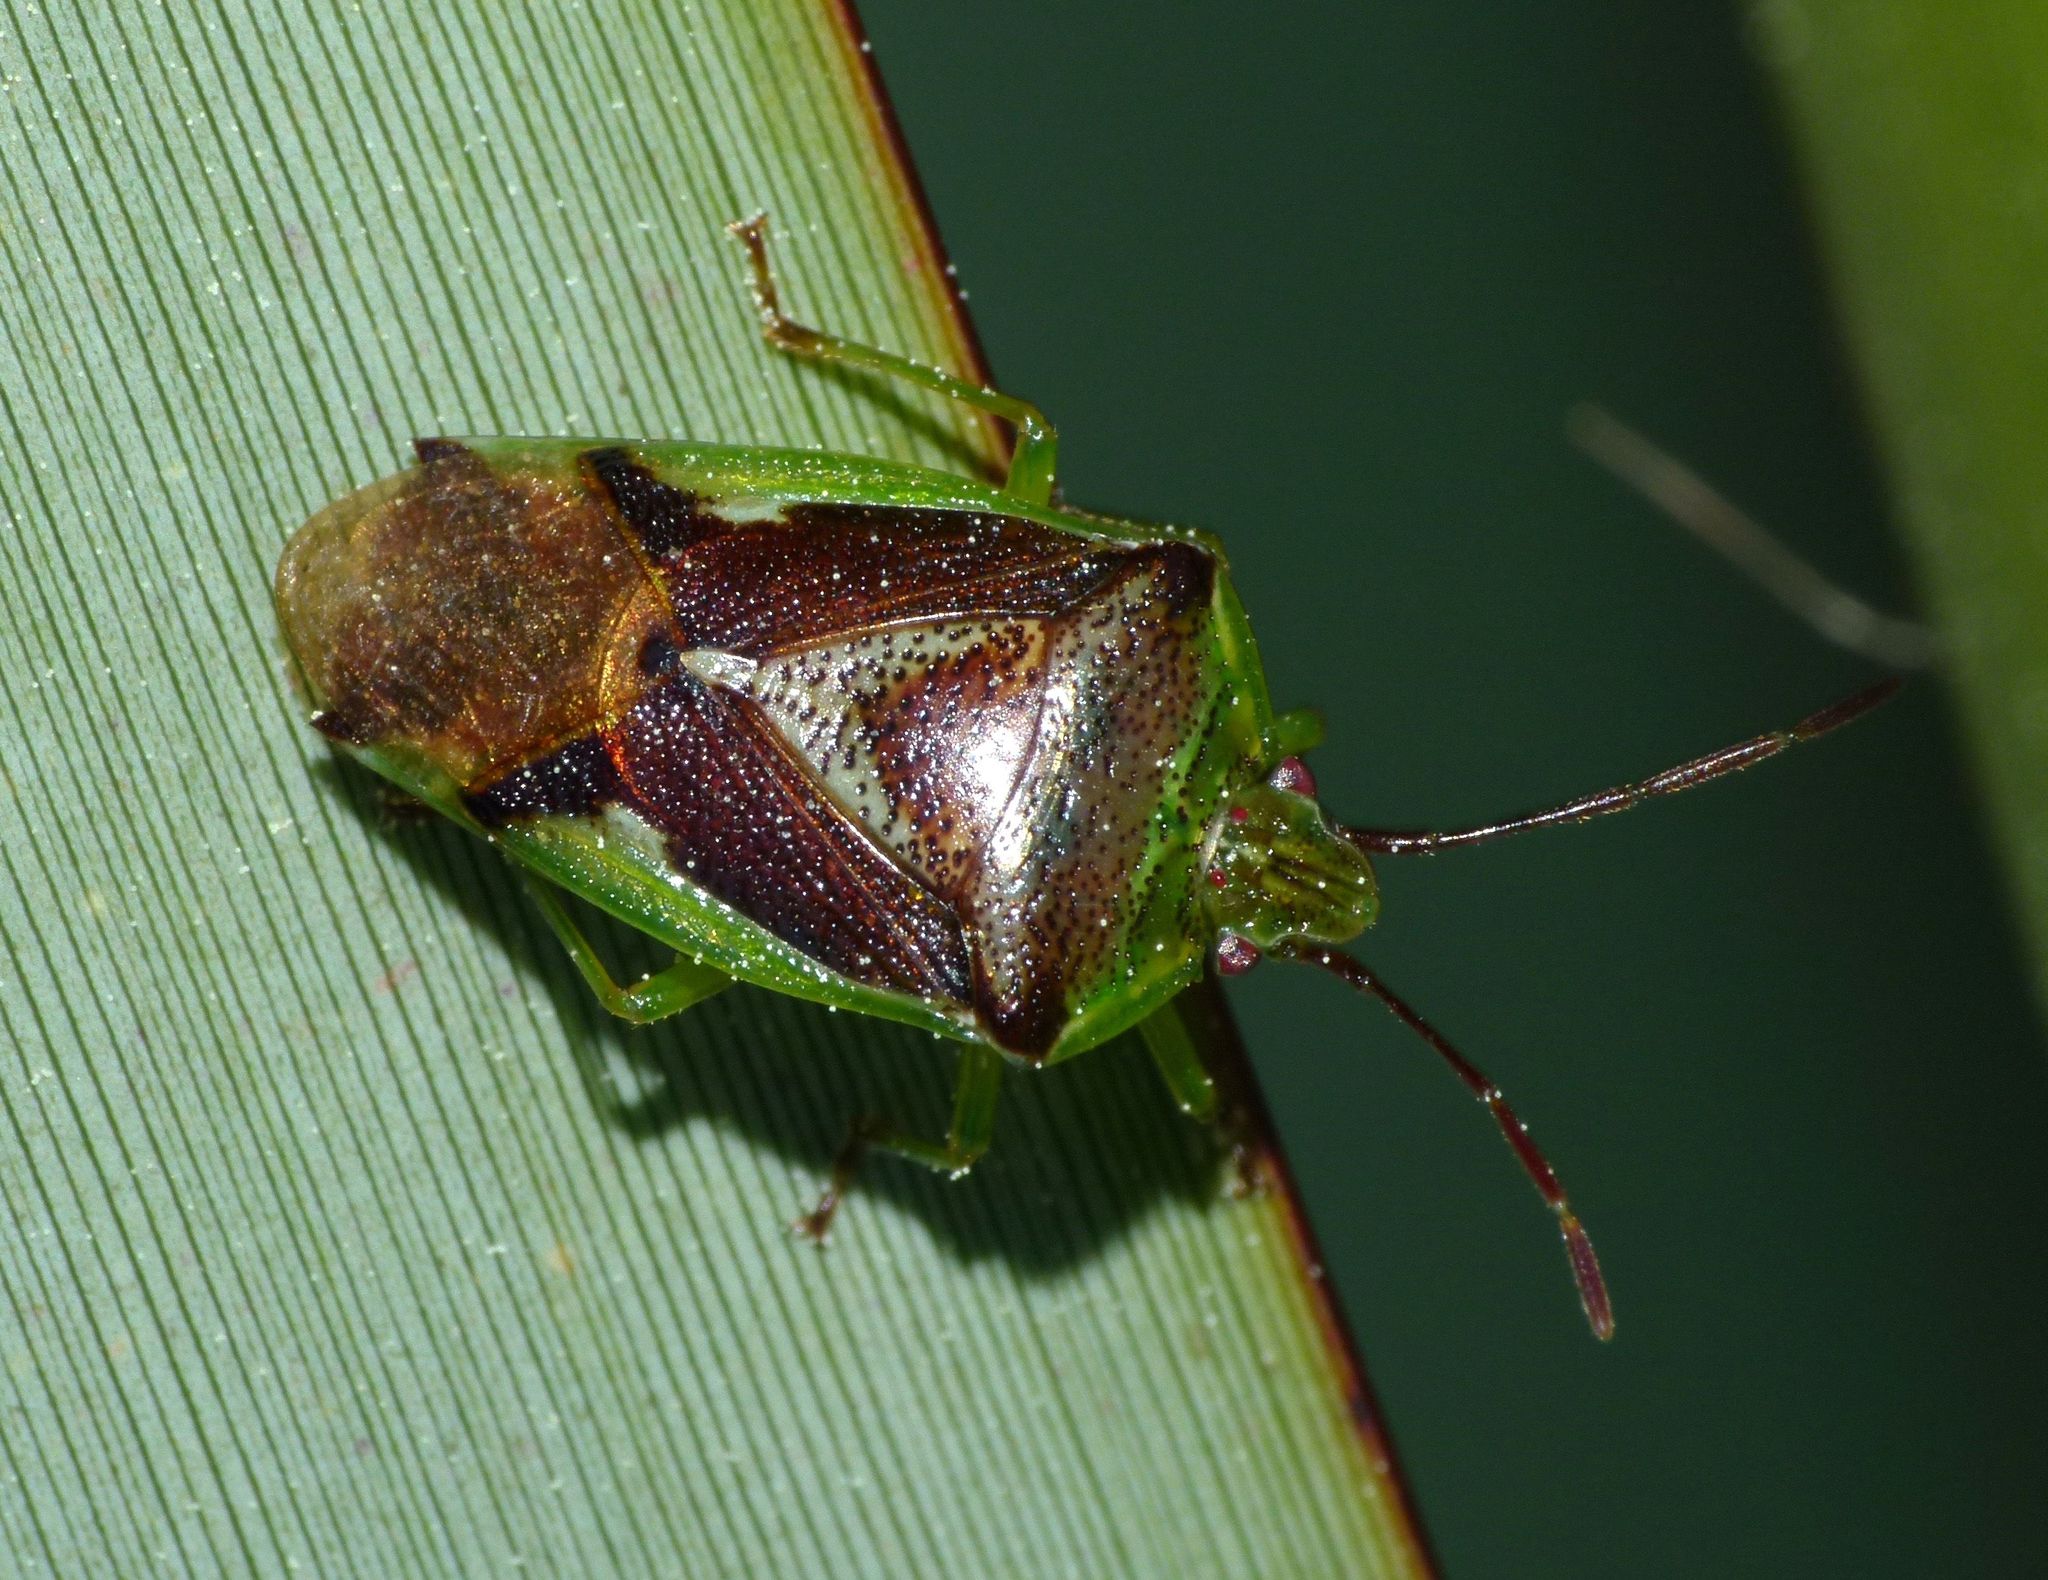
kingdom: Animalia
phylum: Arthropoda
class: Insecta
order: Hemiptera
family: Acanthosomatidae
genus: Oncacontias
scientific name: Oncacontias vittatus
